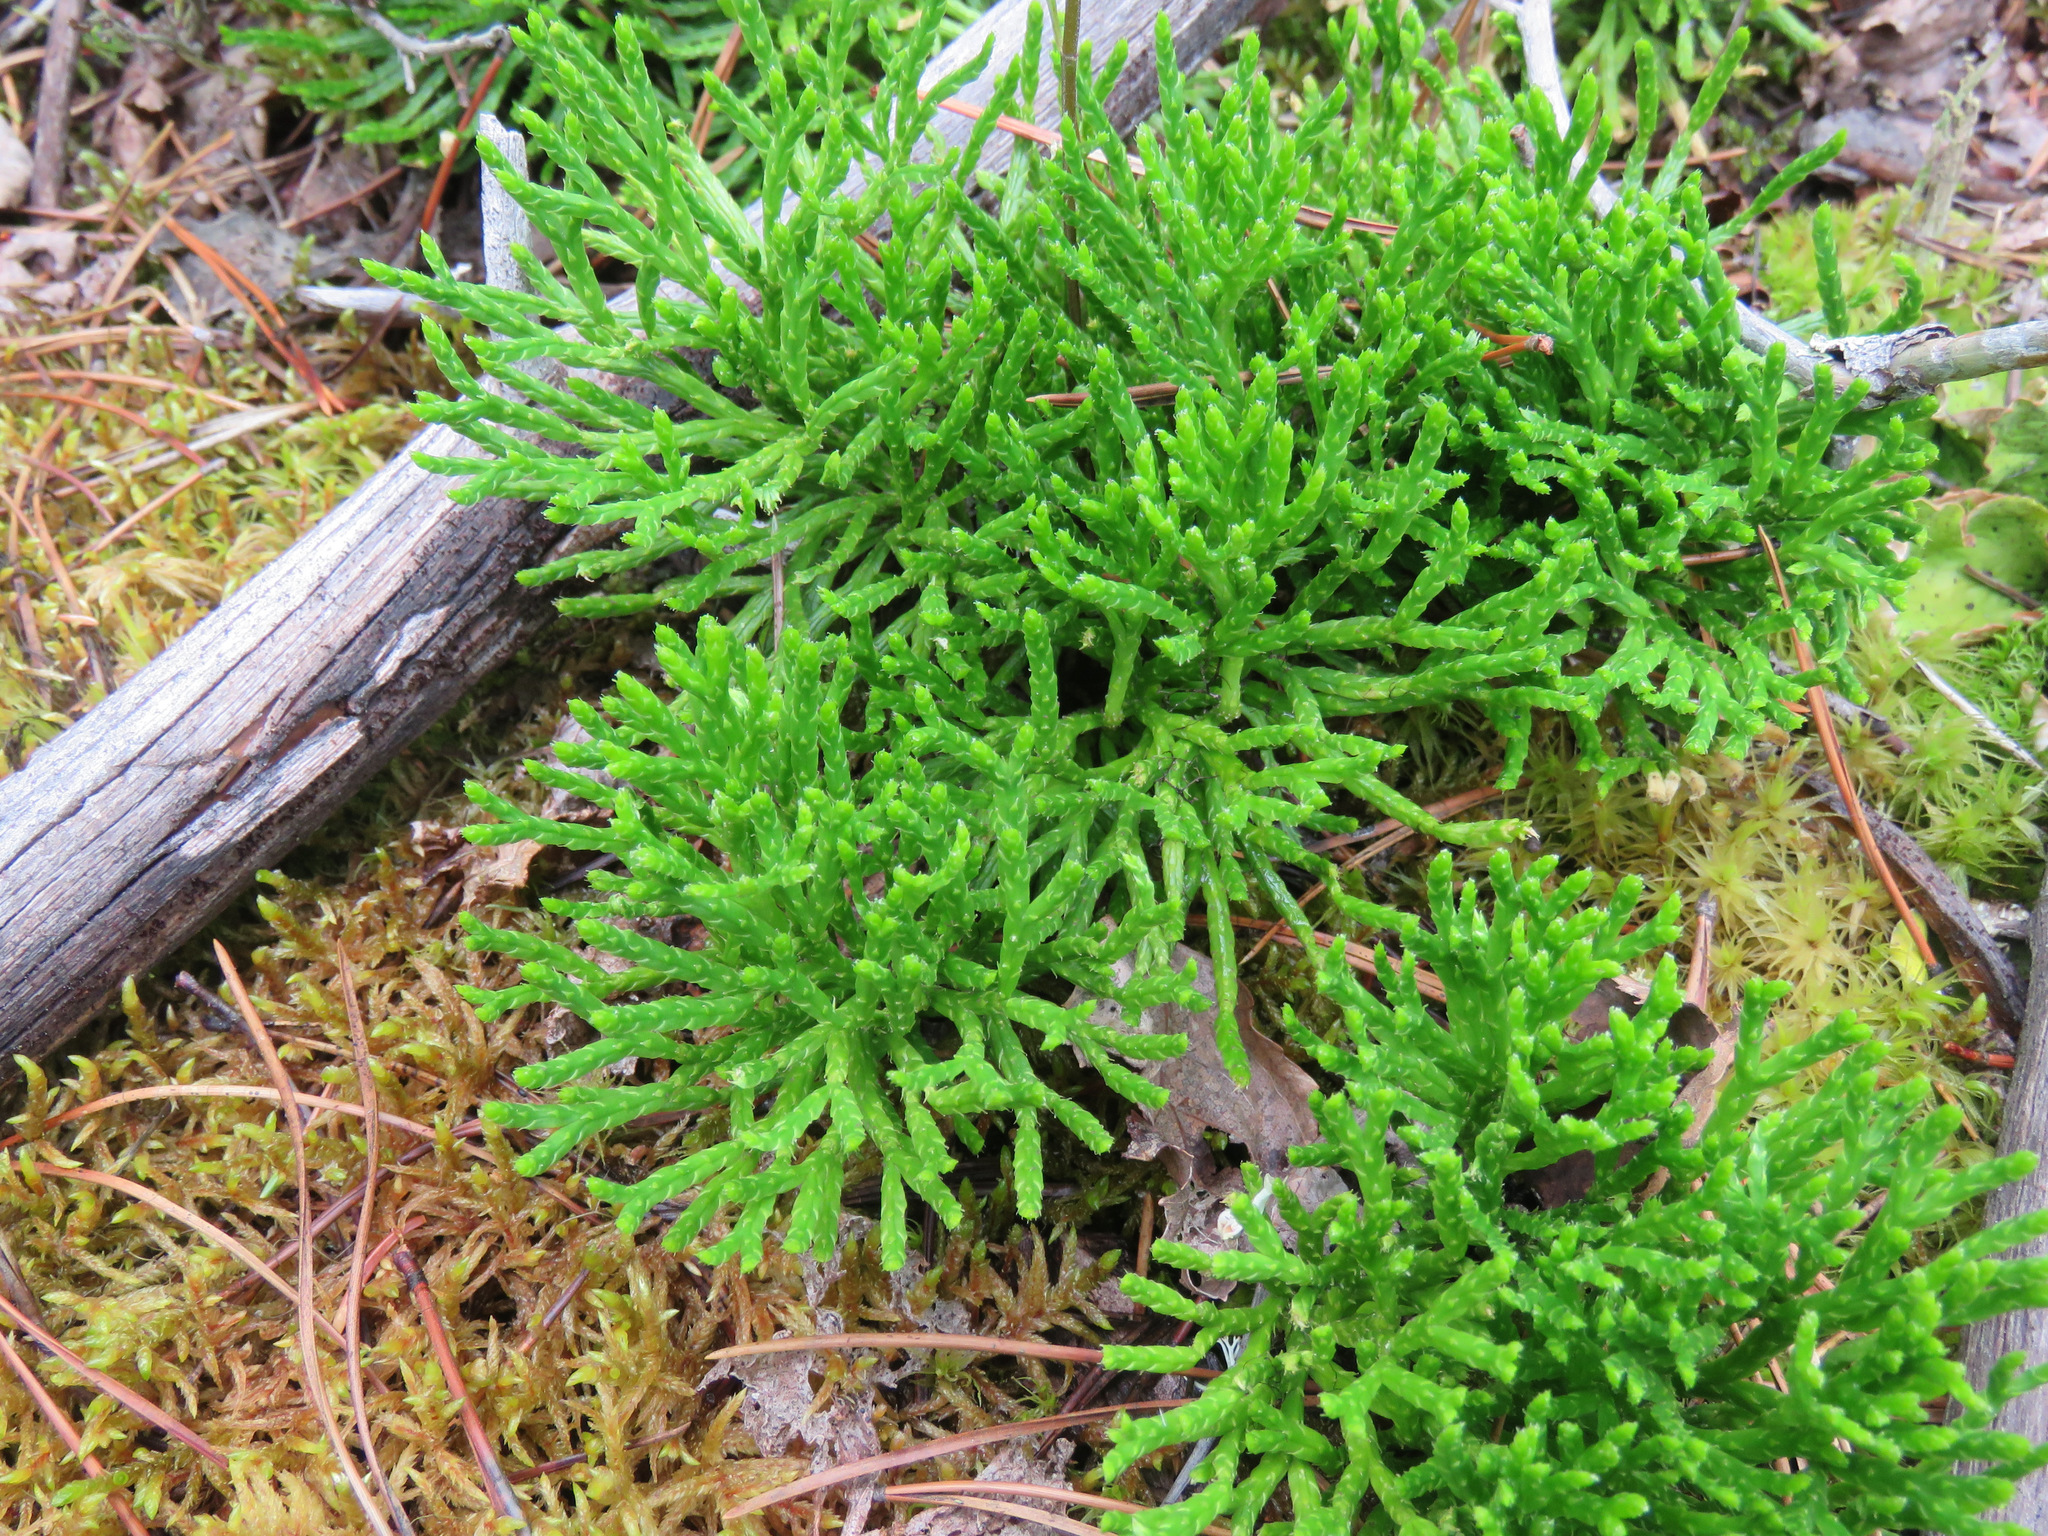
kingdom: Plantae
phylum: Tracheophyta
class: Lycopodiopsida
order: Lycopodiales
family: Lycopodiaceae
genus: Diphasiastrum
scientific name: Diphasiastrum complanatum
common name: Northern running-pine
